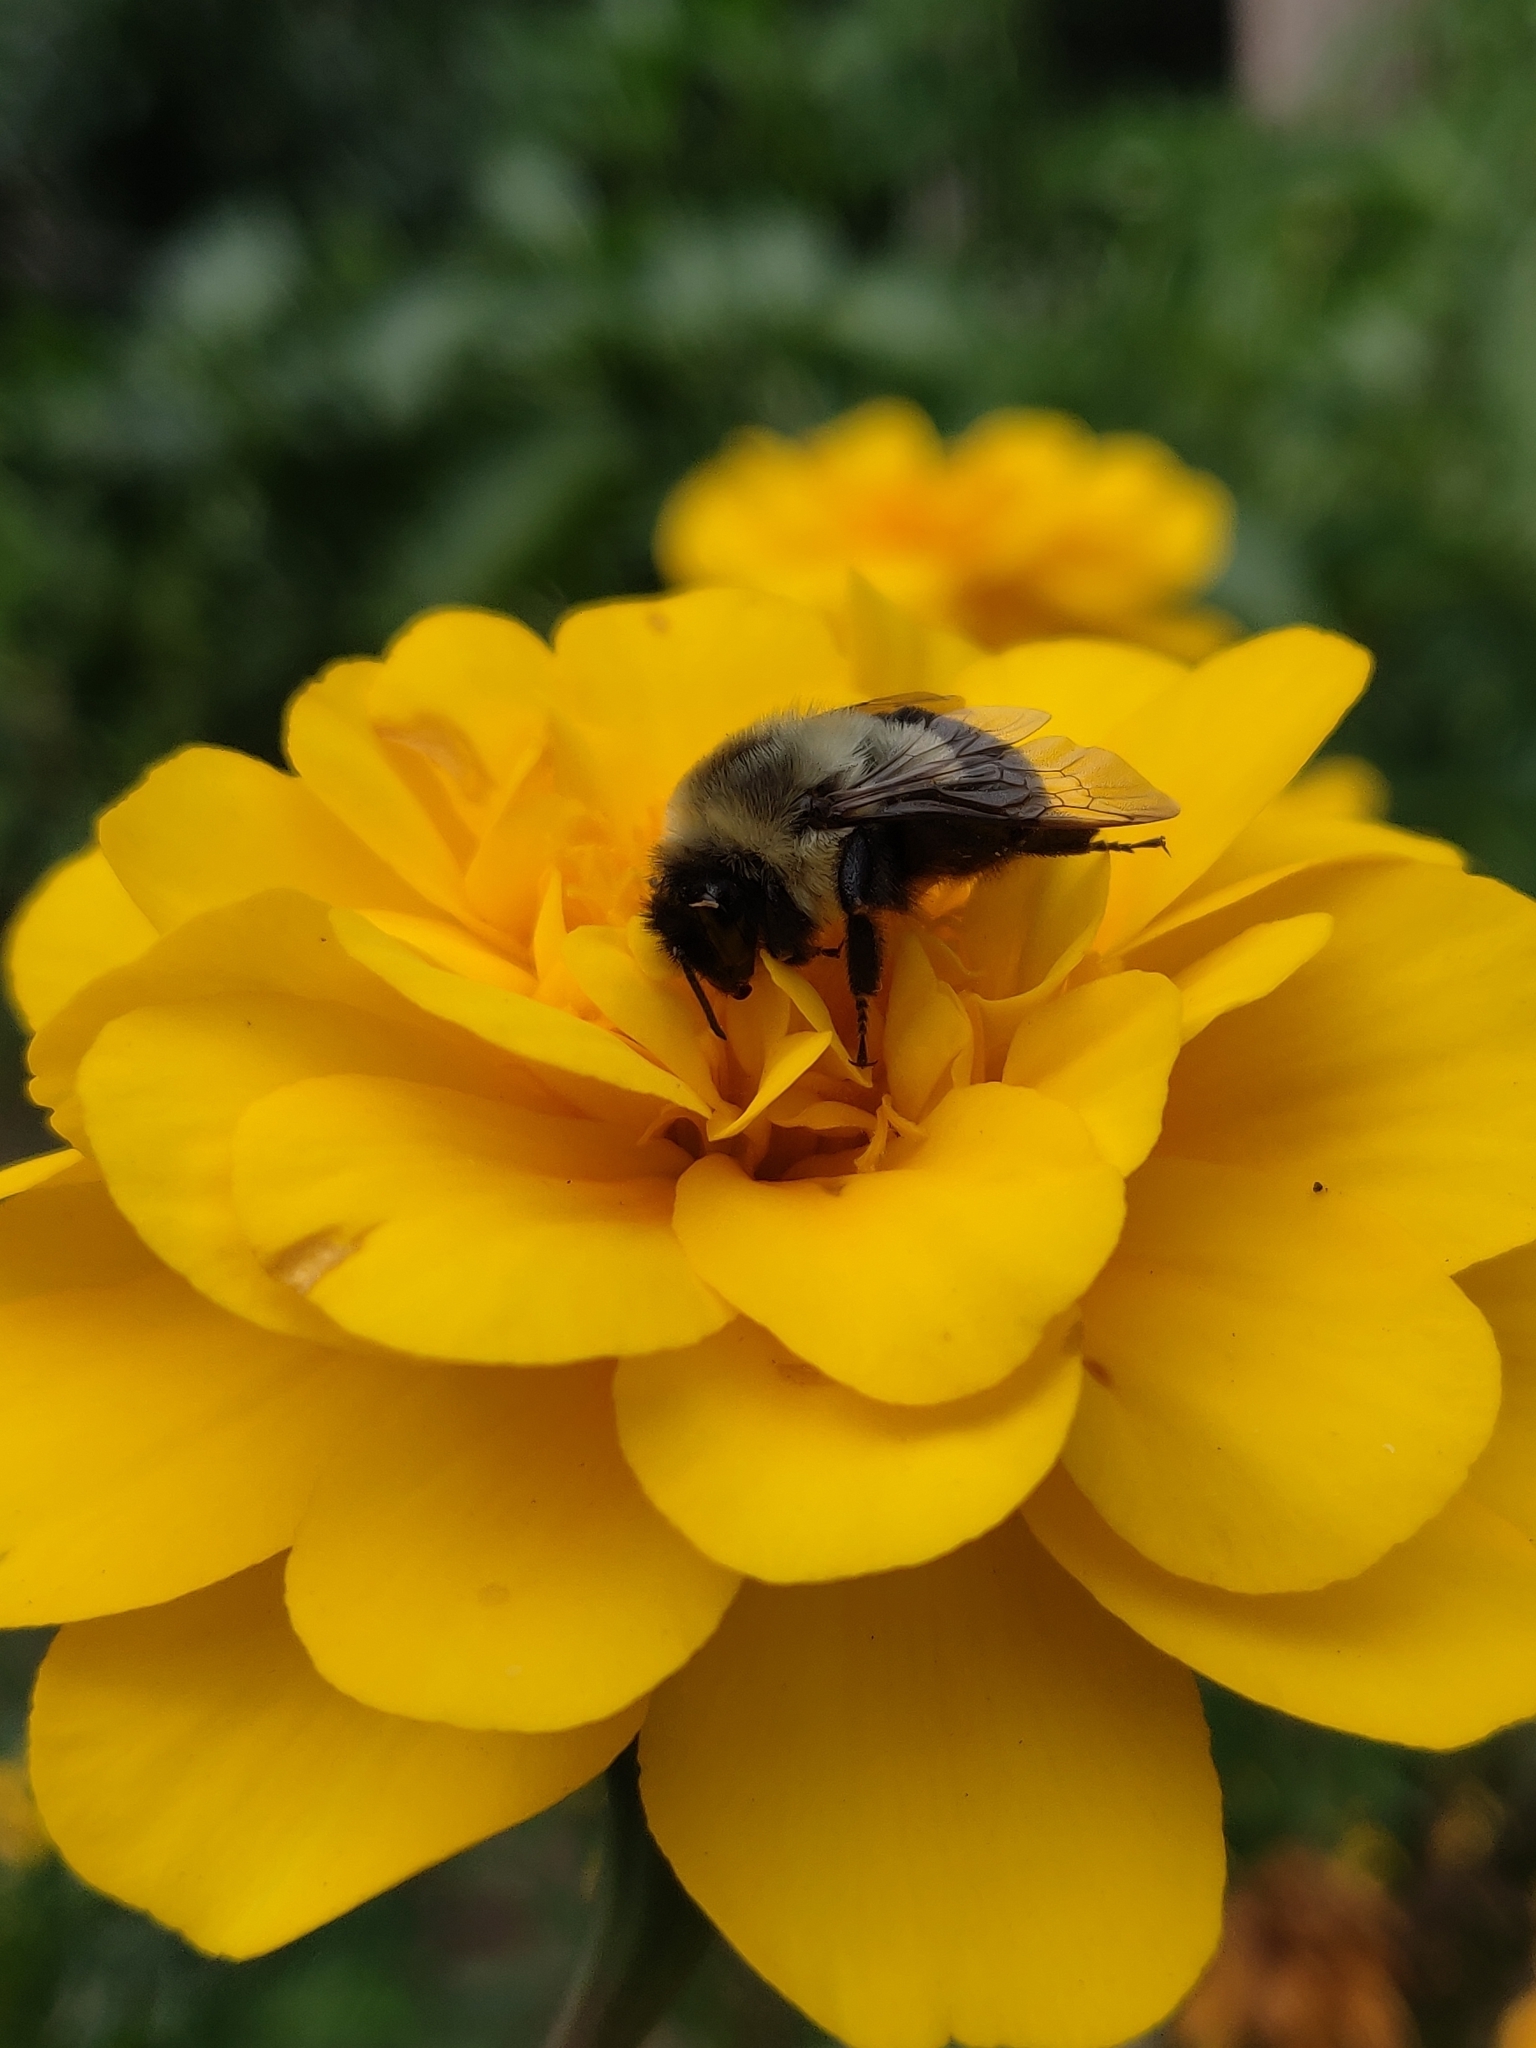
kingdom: Animalia
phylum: Arthropoda
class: Insecta
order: Hymenoptera
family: Apidae
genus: Bombus
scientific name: Bombus impatiens
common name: Common eastern bumble bee
